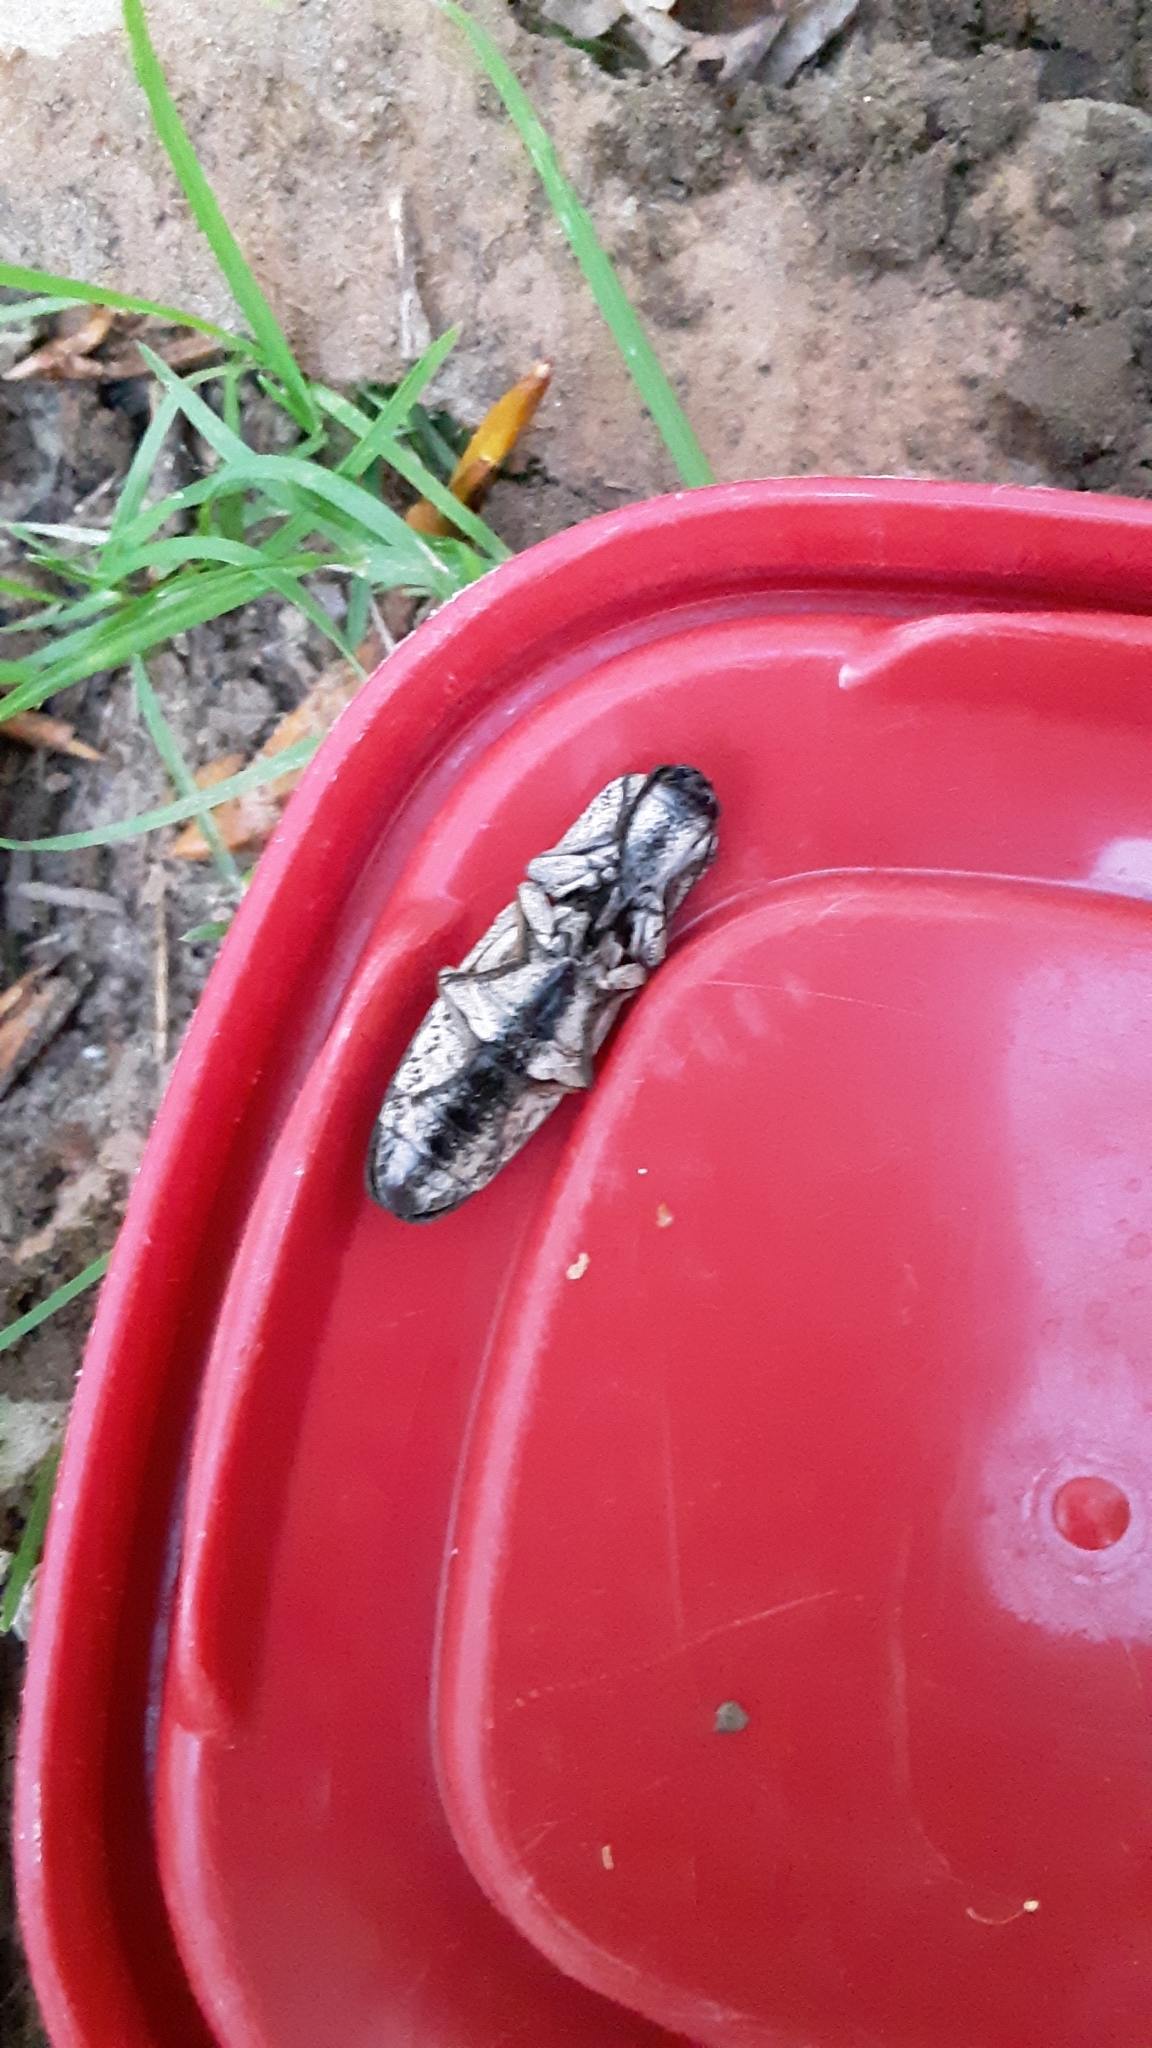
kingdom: Animalia
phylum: Arthropoda
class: Insecta
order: Coleoptera
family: Elateridae
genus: Alaus
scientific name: Alaus oculatus
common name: Eastern eyed click beetle
